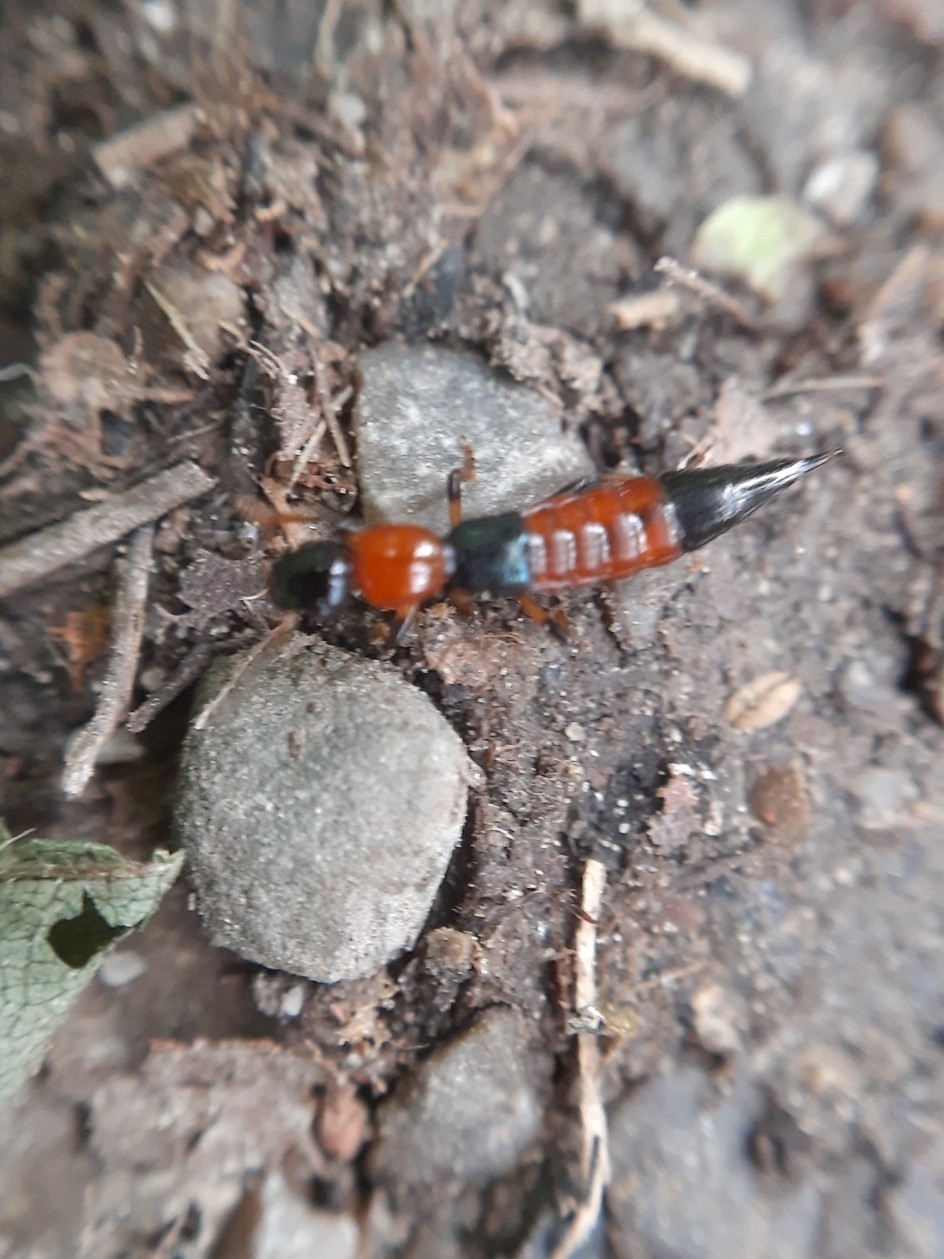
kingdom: Animalia
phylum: Arthropoda
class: Insecta
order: Coleoptera
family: Staphylinidae
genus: Paederus
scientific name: Paederus schoenherri
